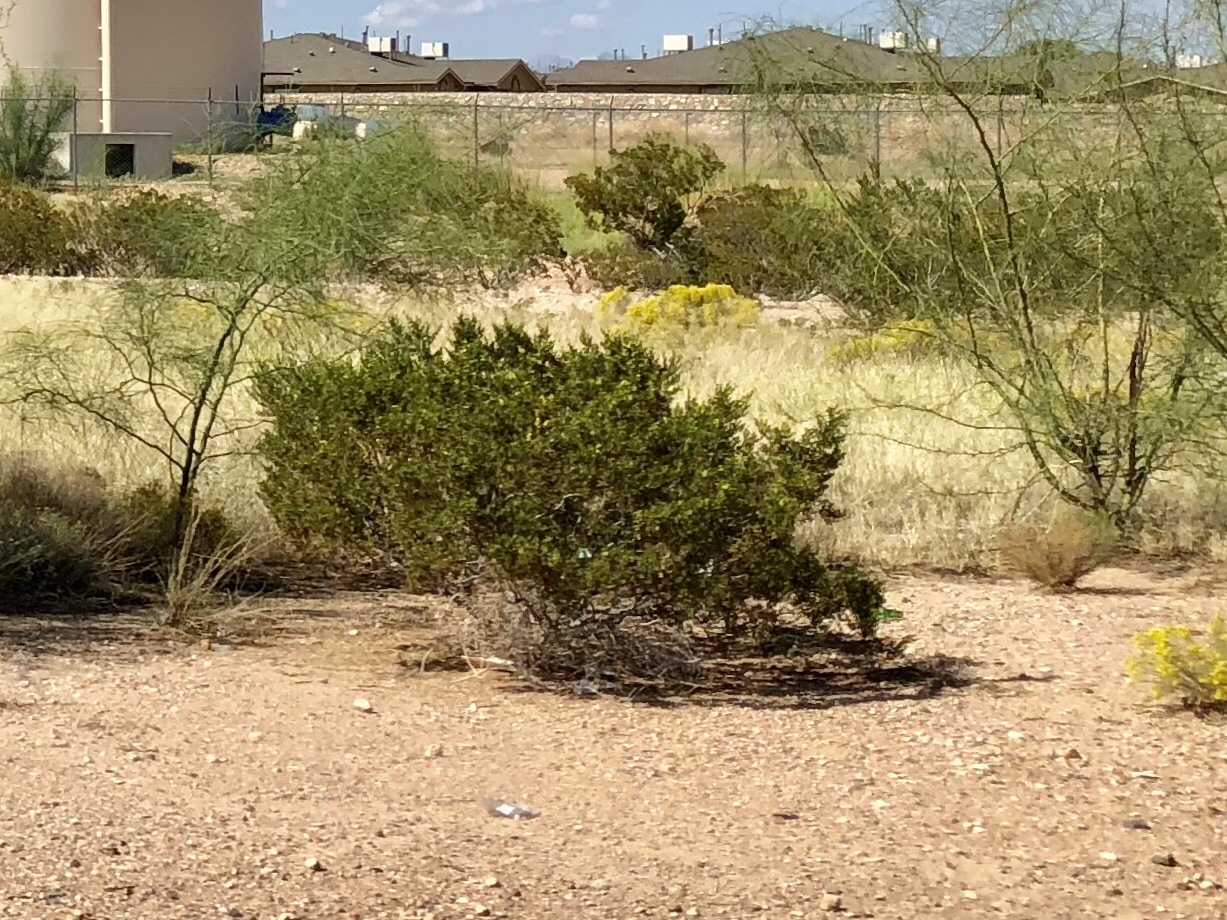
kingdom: Plantae
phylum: Tracheophyta
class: Magnoliopsida
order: Zygophyllales
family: Zygophyllaceae
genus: Larrea
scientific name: Larrea tridentata
